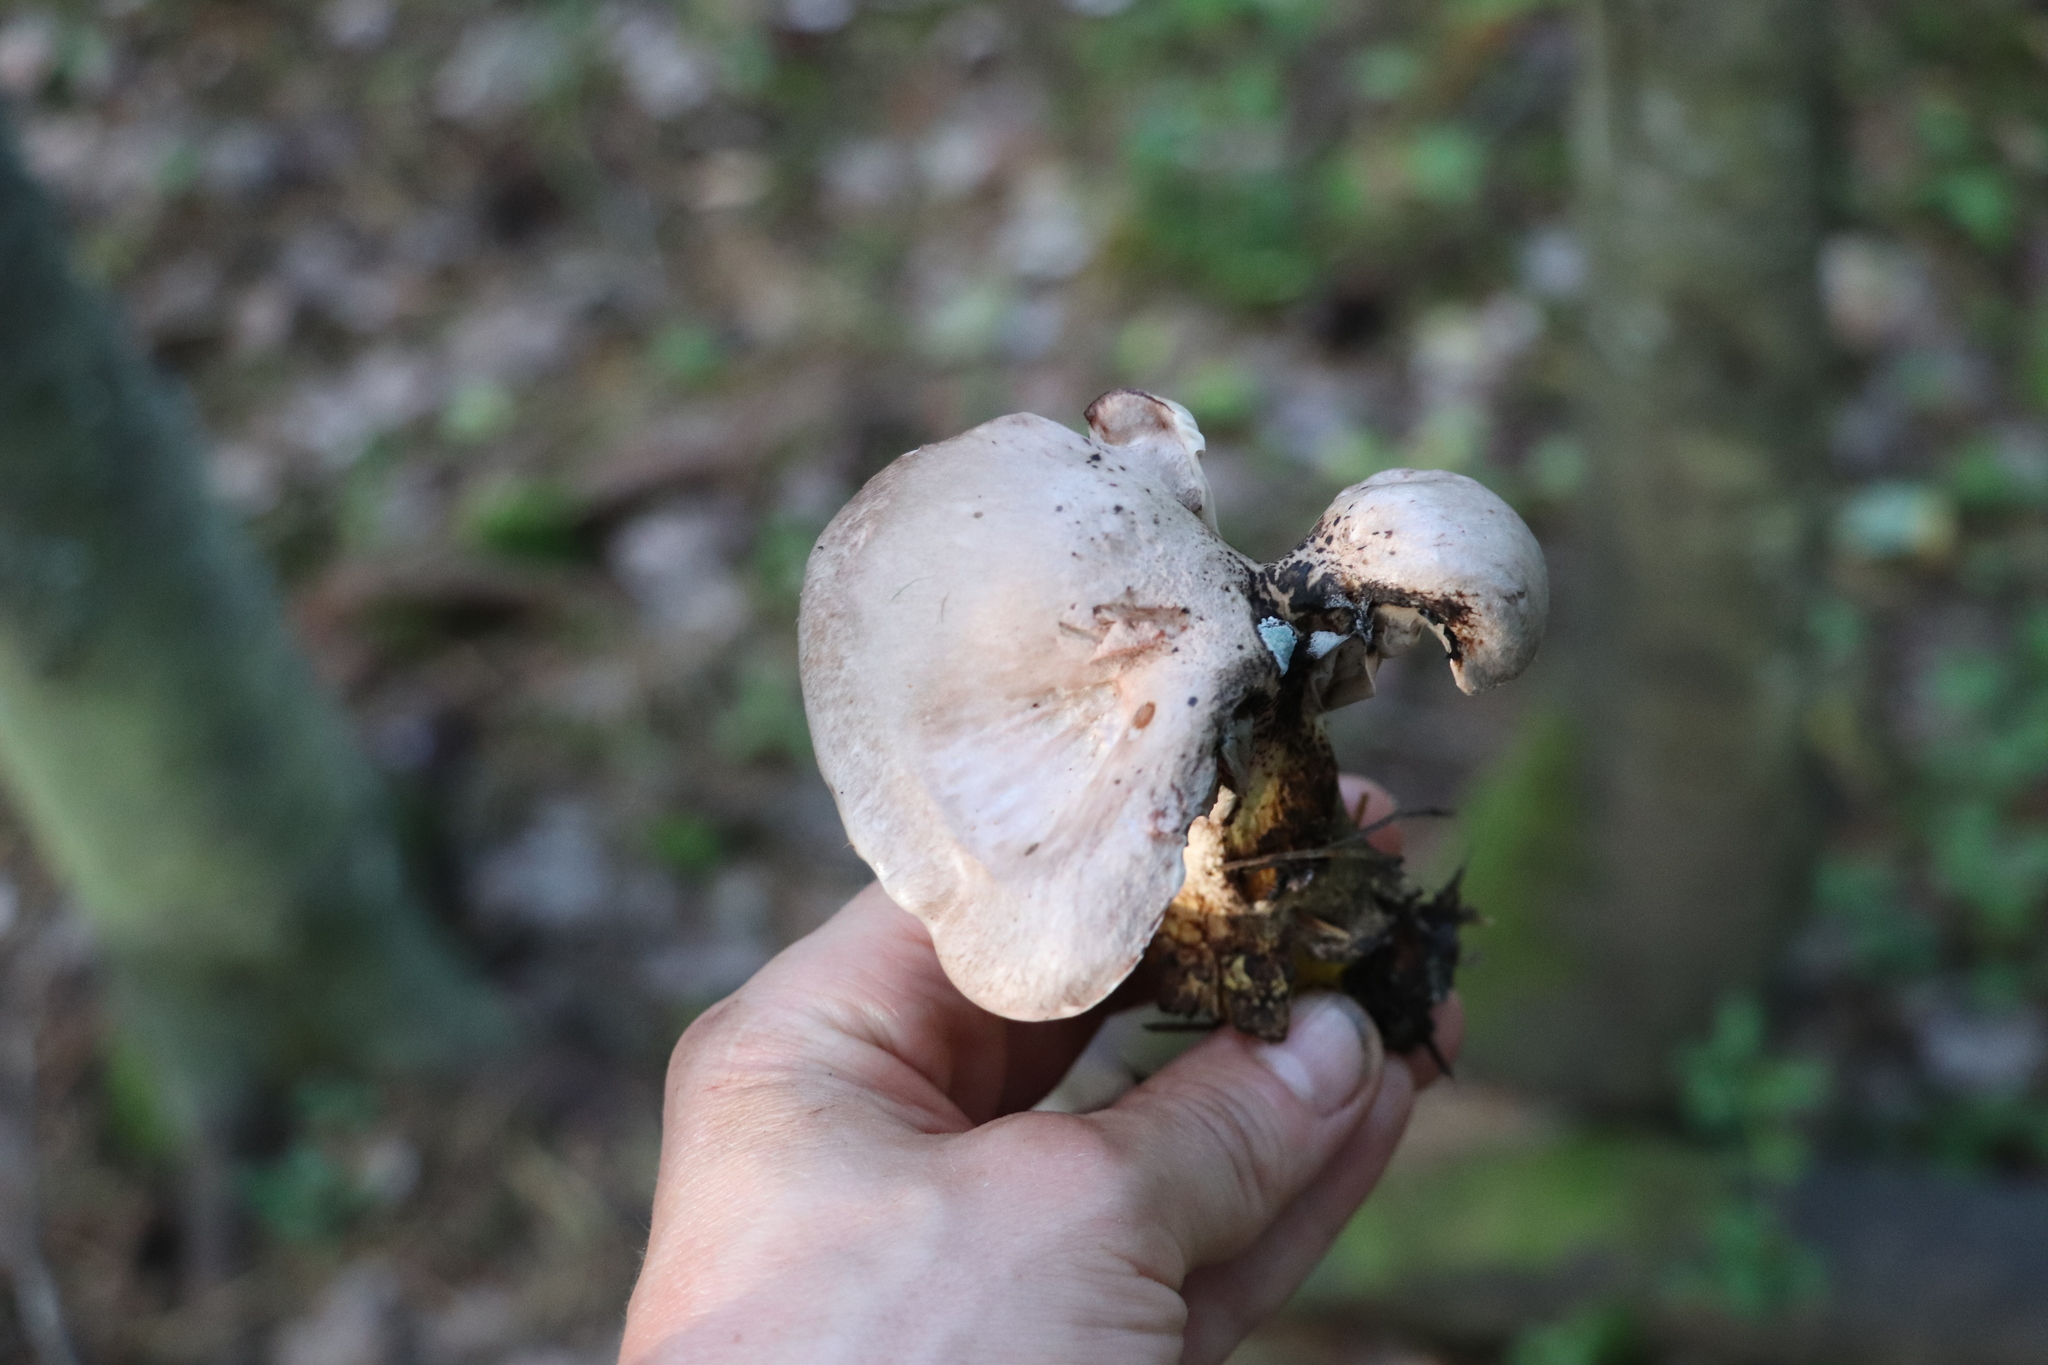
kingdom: Fungi
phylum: Basidiomycota
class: Agaricomycetes
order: Boletales
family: Gomphidiaceae
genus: Gomphidius
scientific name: Gomphidius glutinosus
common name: Slimy spike
